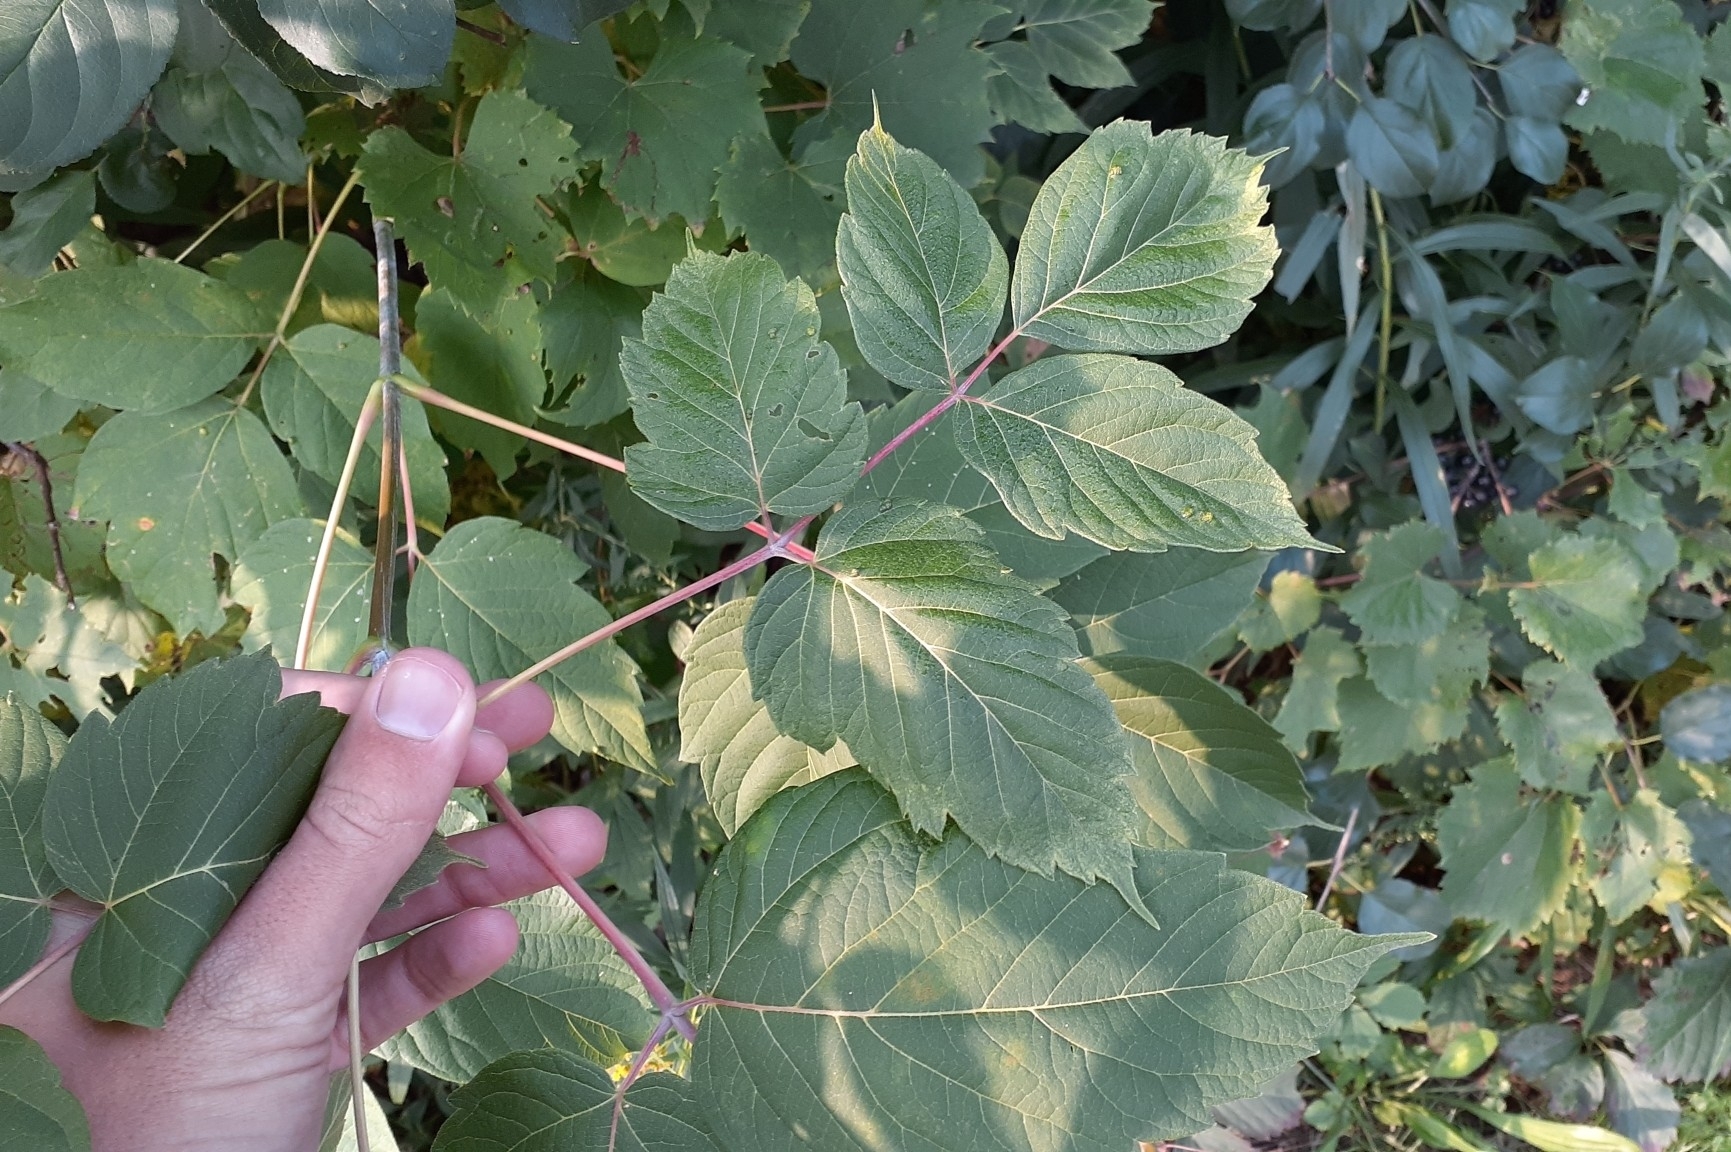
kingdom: Plantae
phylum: Tracheophyta
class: Magnoliopsida
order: Sapindales
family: Sapindaceae
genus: Acer
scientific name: Acer negundo
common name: Ashleaf maple
